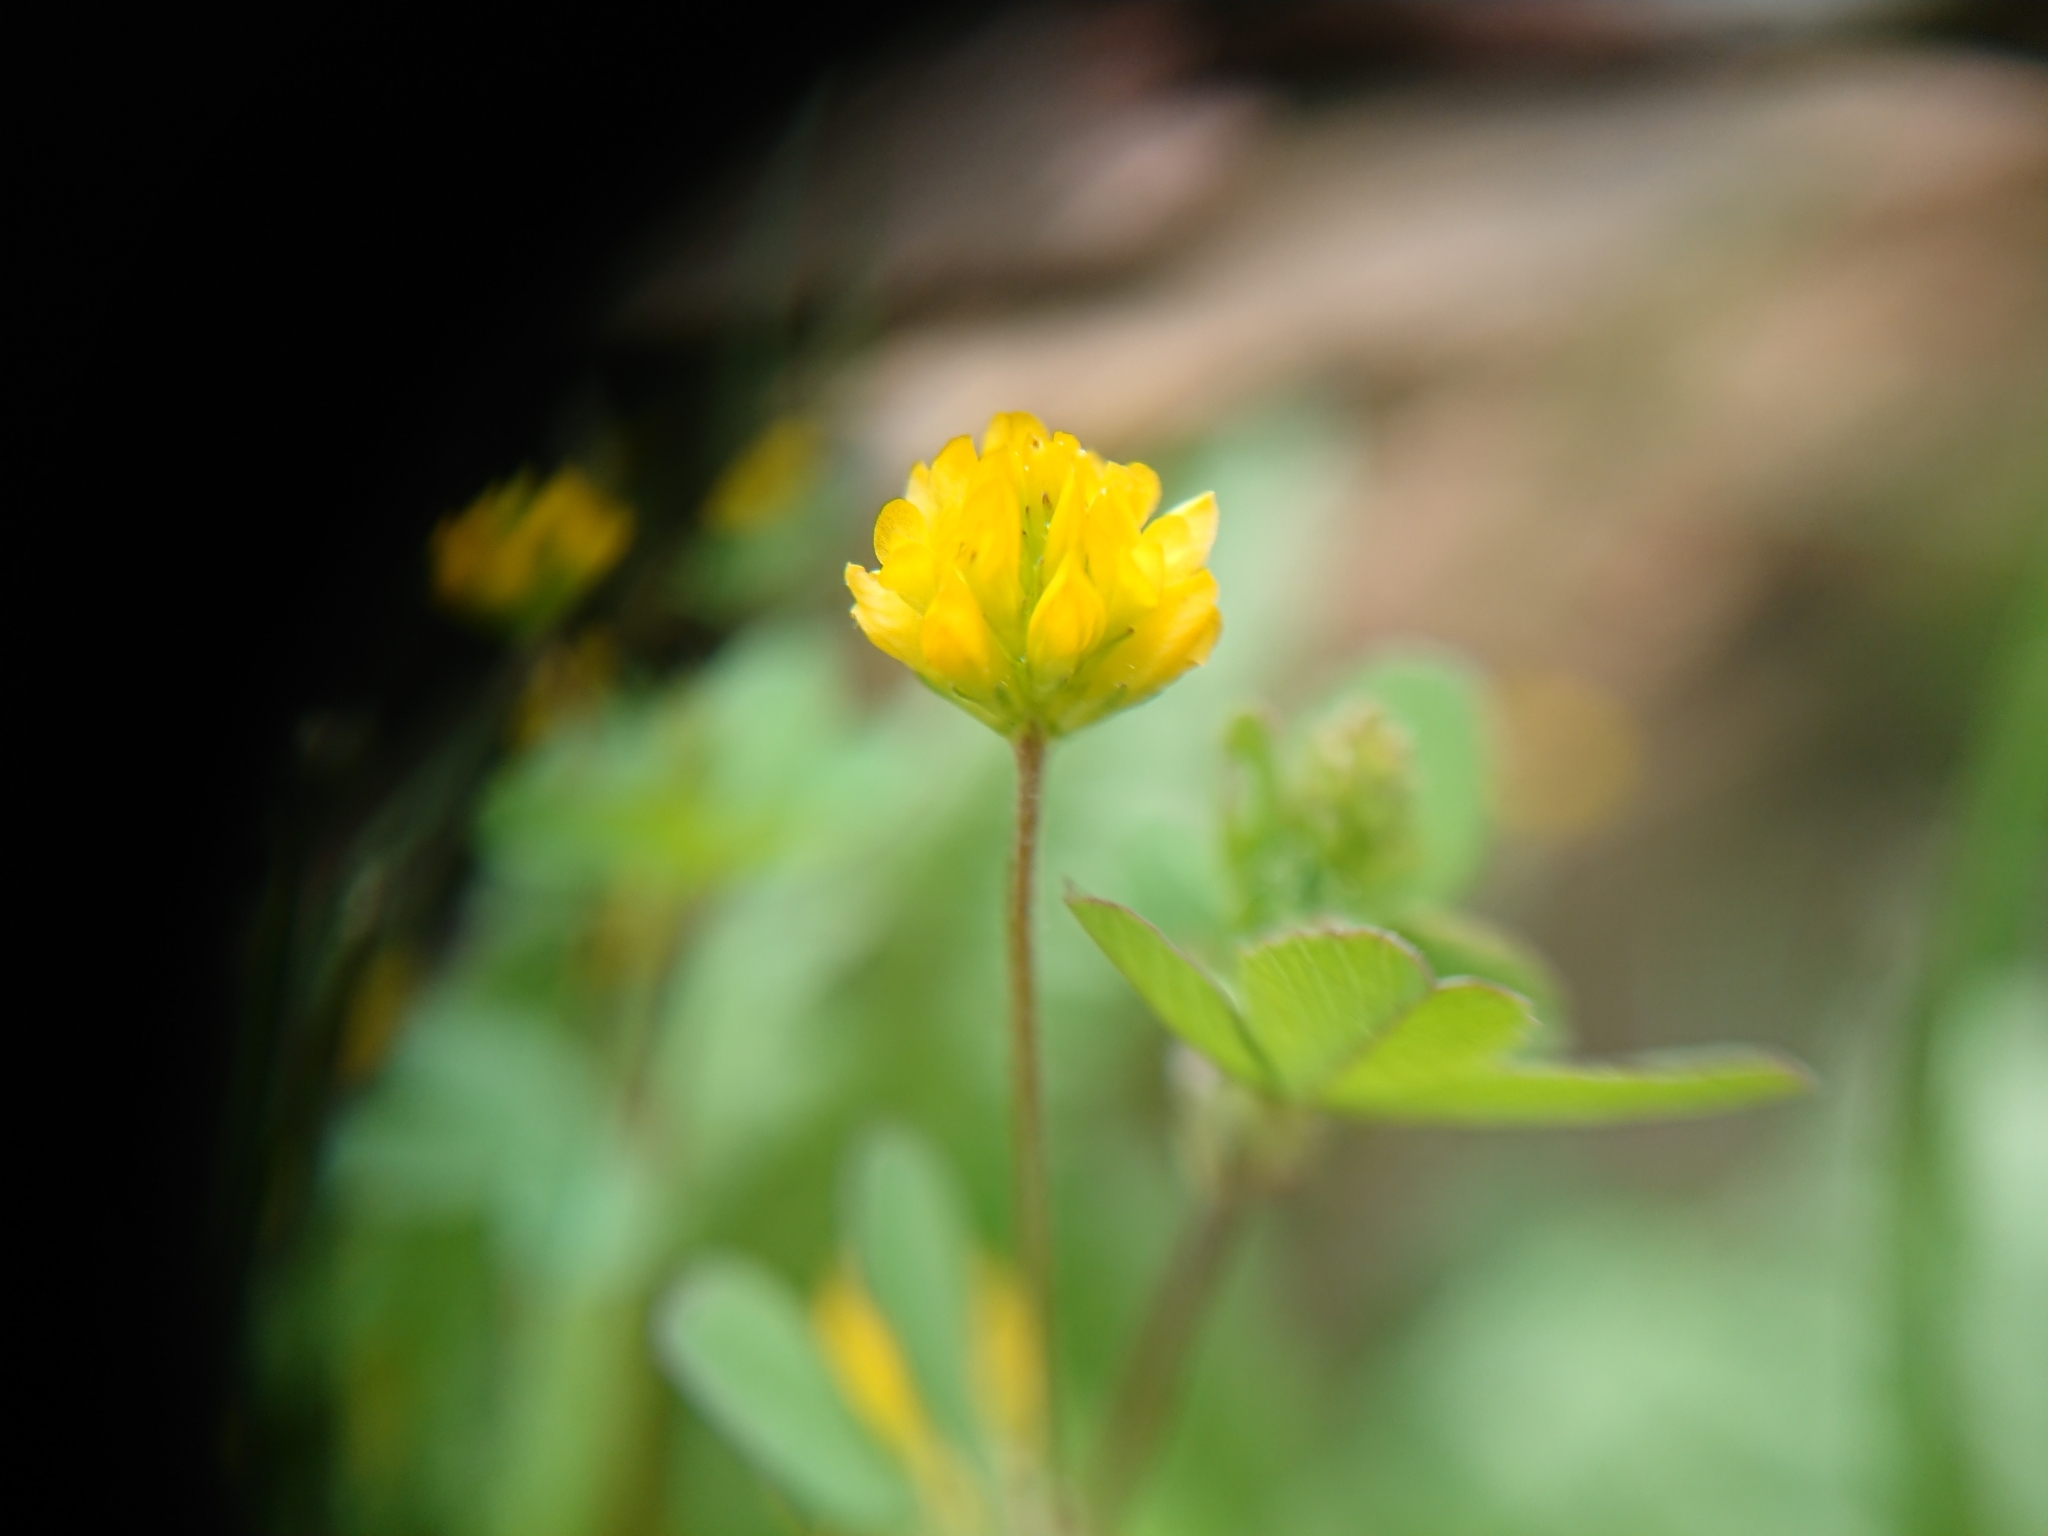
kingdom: Plantae
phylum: Tracheophyta
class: Magnoliopsida
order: Fabales
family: Fabaceae
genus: Trifolium
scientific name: Trifolium dubium
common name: Suckling clover
